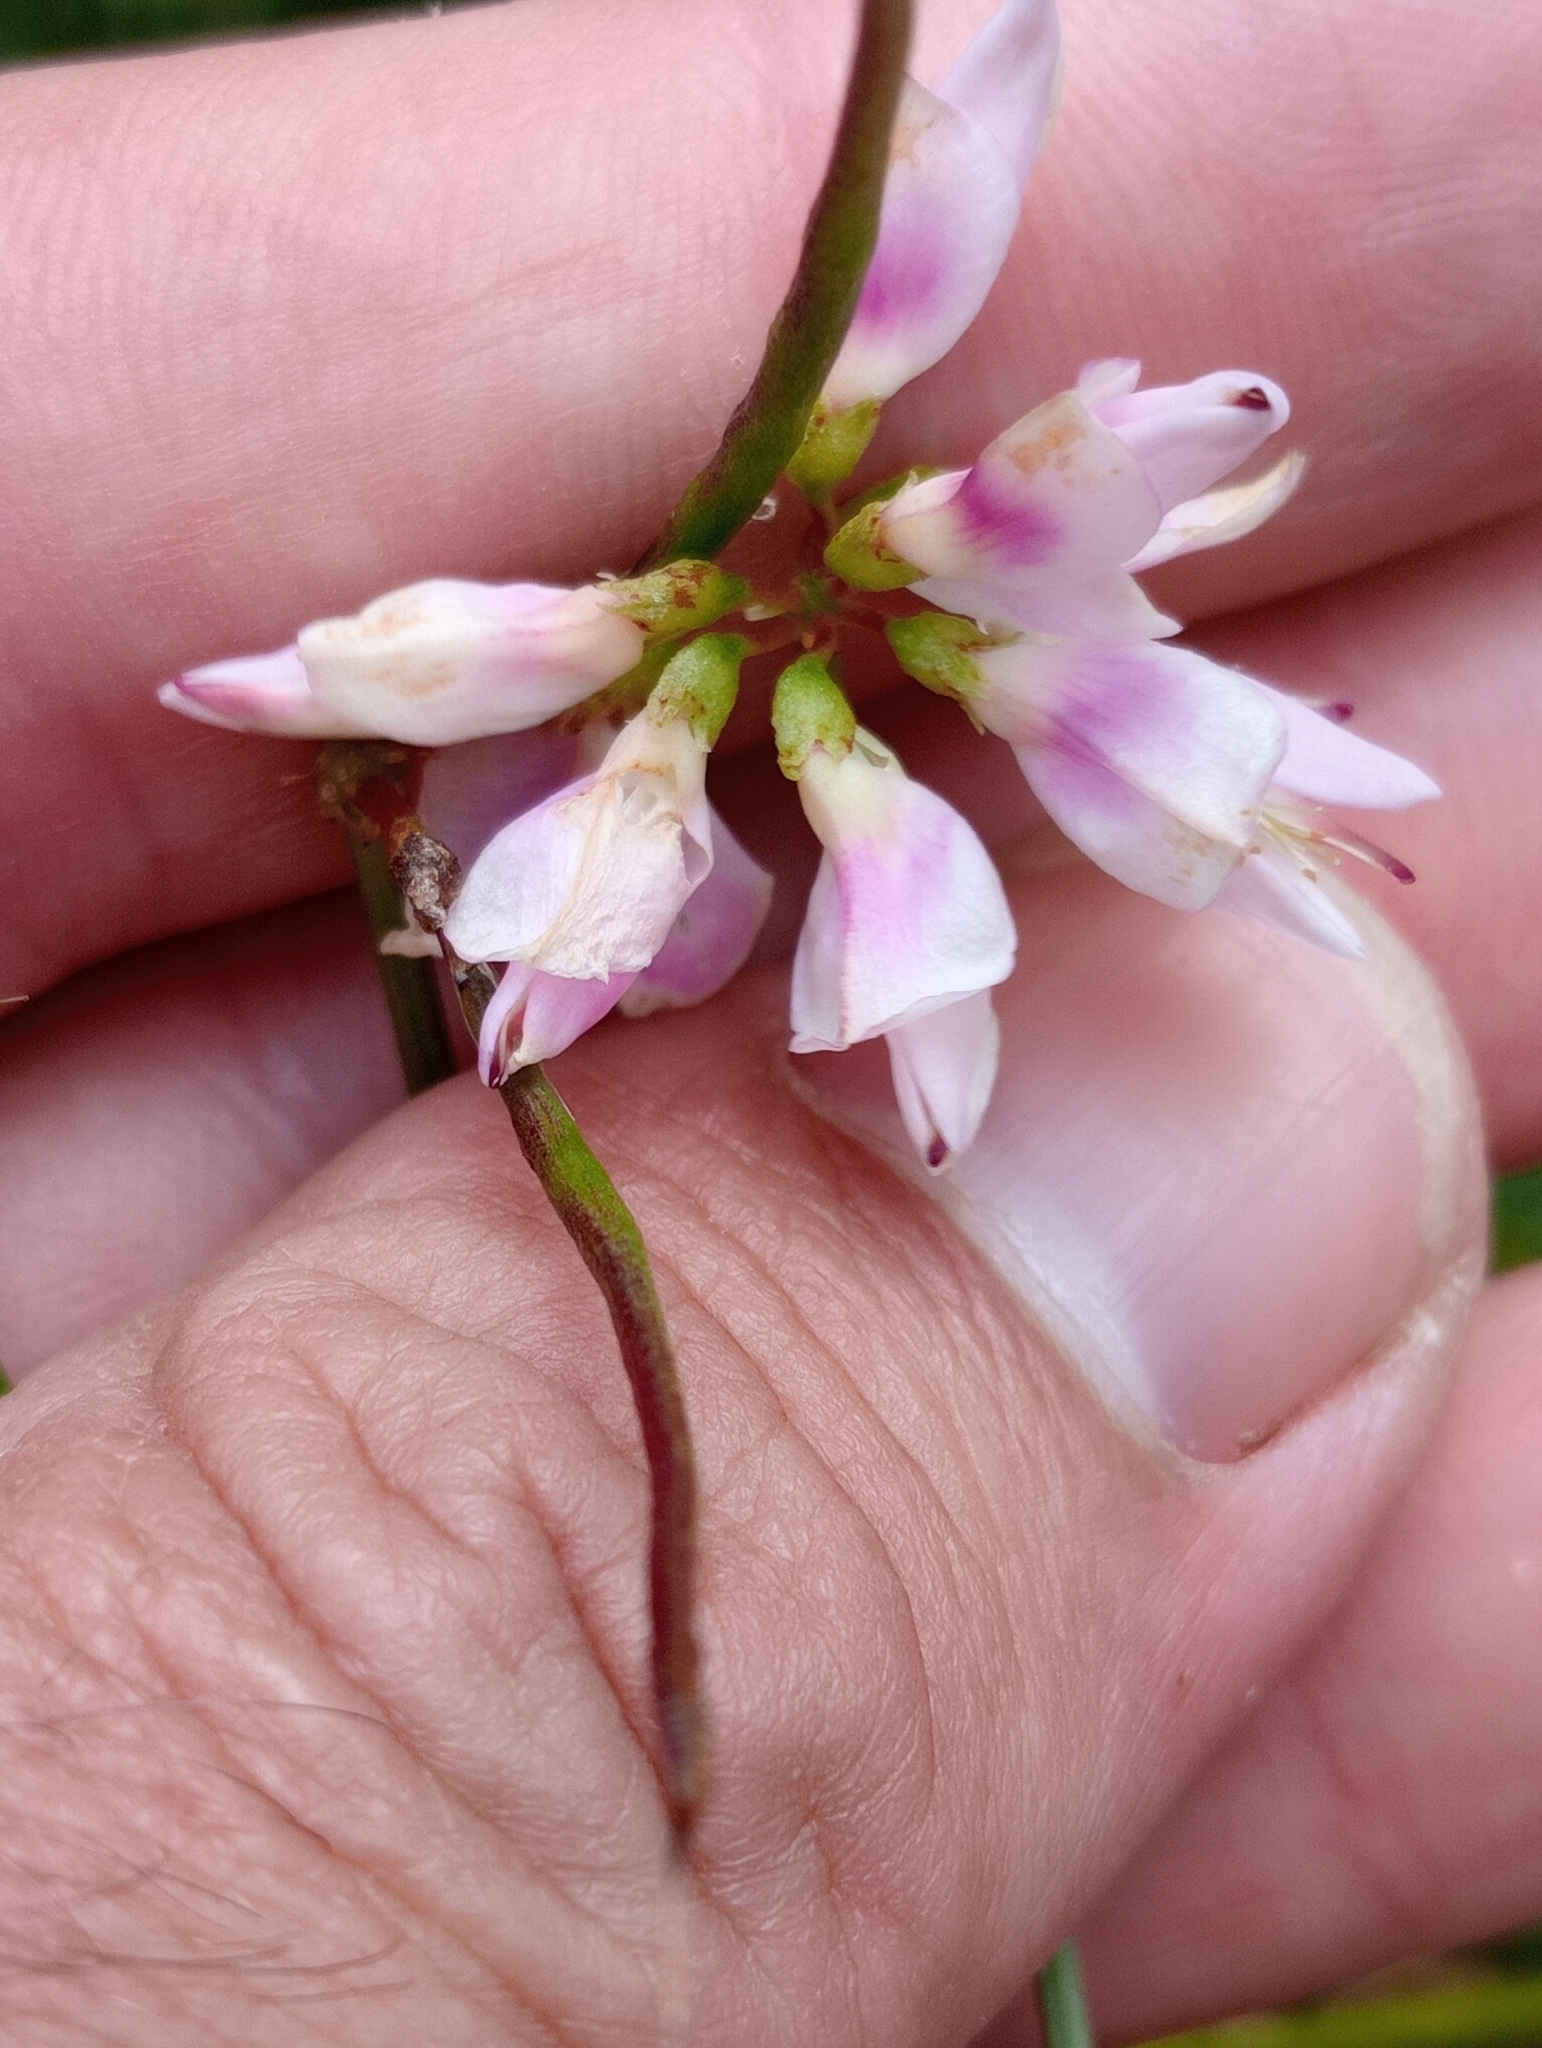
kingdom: Plantae
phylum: Tracheophyta
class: Magnoliopsida
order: Fabales
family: Fabaceae
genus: Coronilla
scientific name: Coronilla varia
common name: Crownvetch
